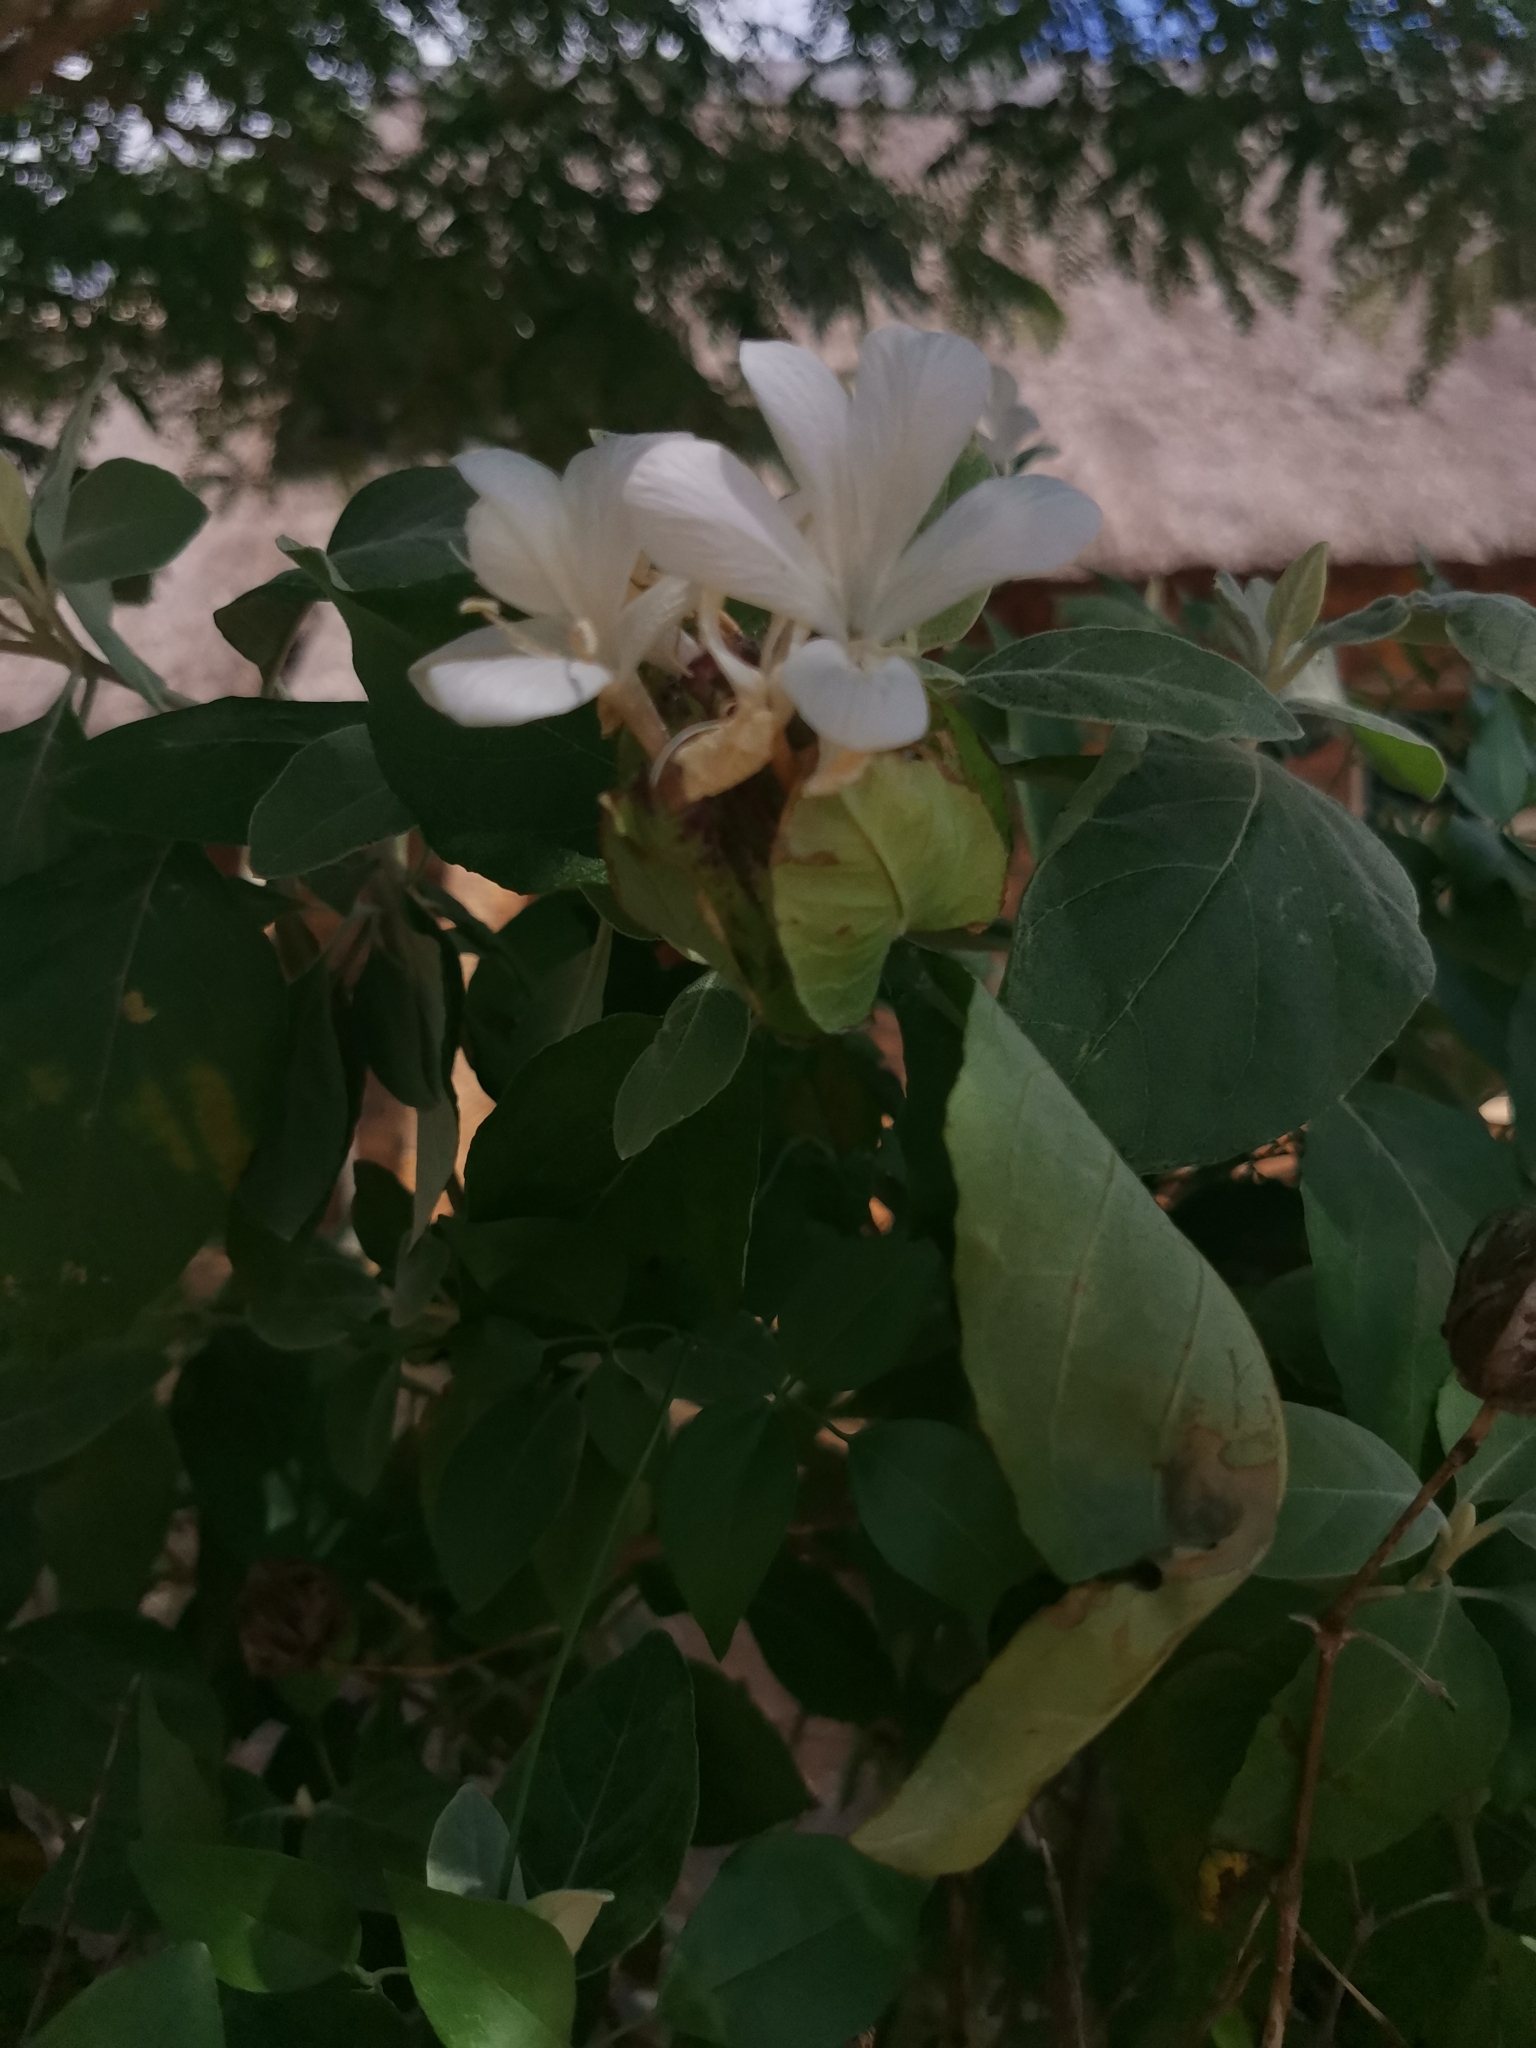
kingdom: Plantae
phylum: Tracheophyta
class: Magnoliopsida
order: Lamiales
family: Acanthaceae
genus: Barleria
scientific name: Barleria albostellata
